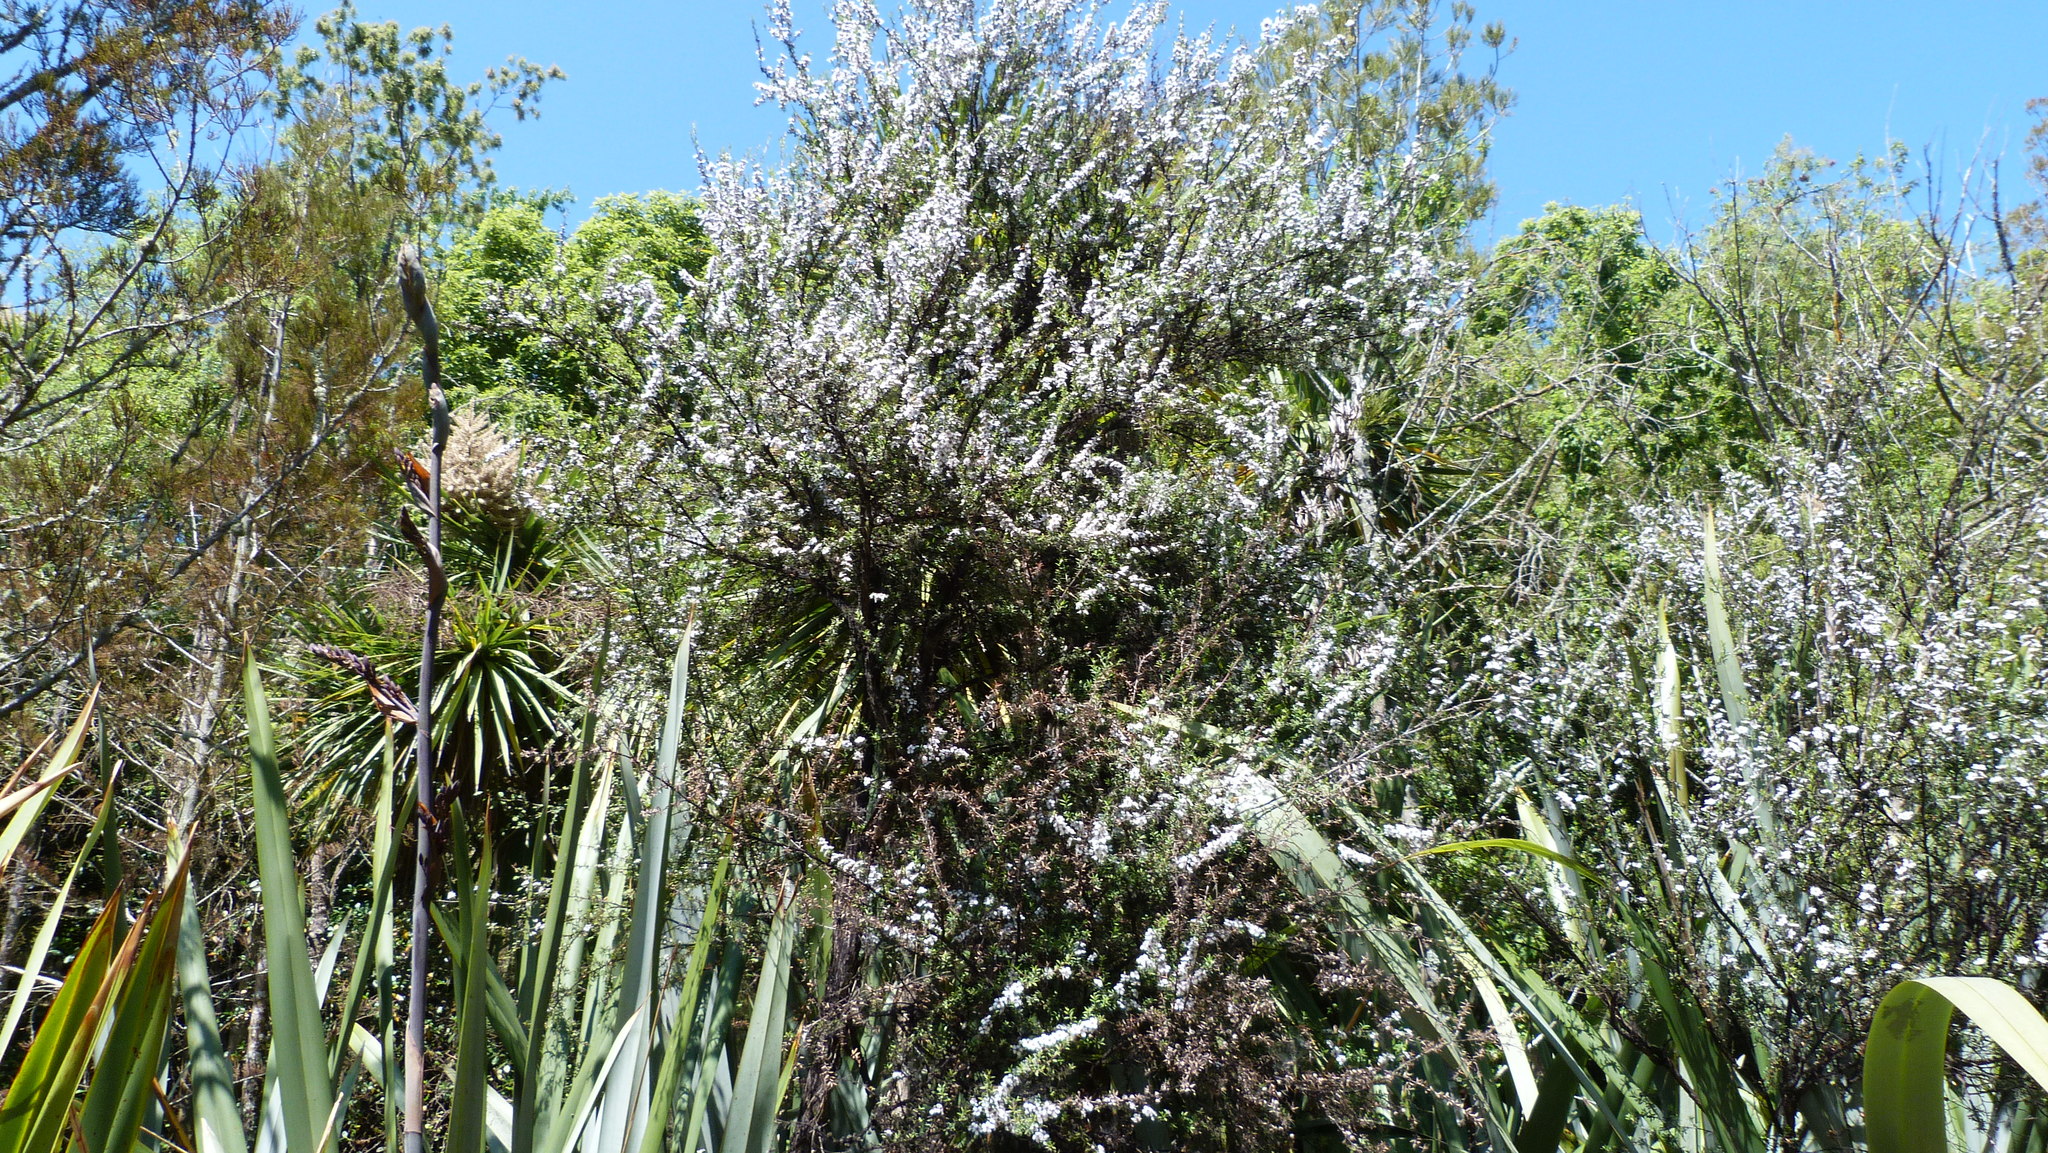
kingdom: Plantae
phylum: Tracheophyta
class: Magnoliopsida
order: Myrtales
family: Myrtaceae
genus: Leptospermum
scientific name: Leptospermum scoparium
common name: Broom tea-tree
